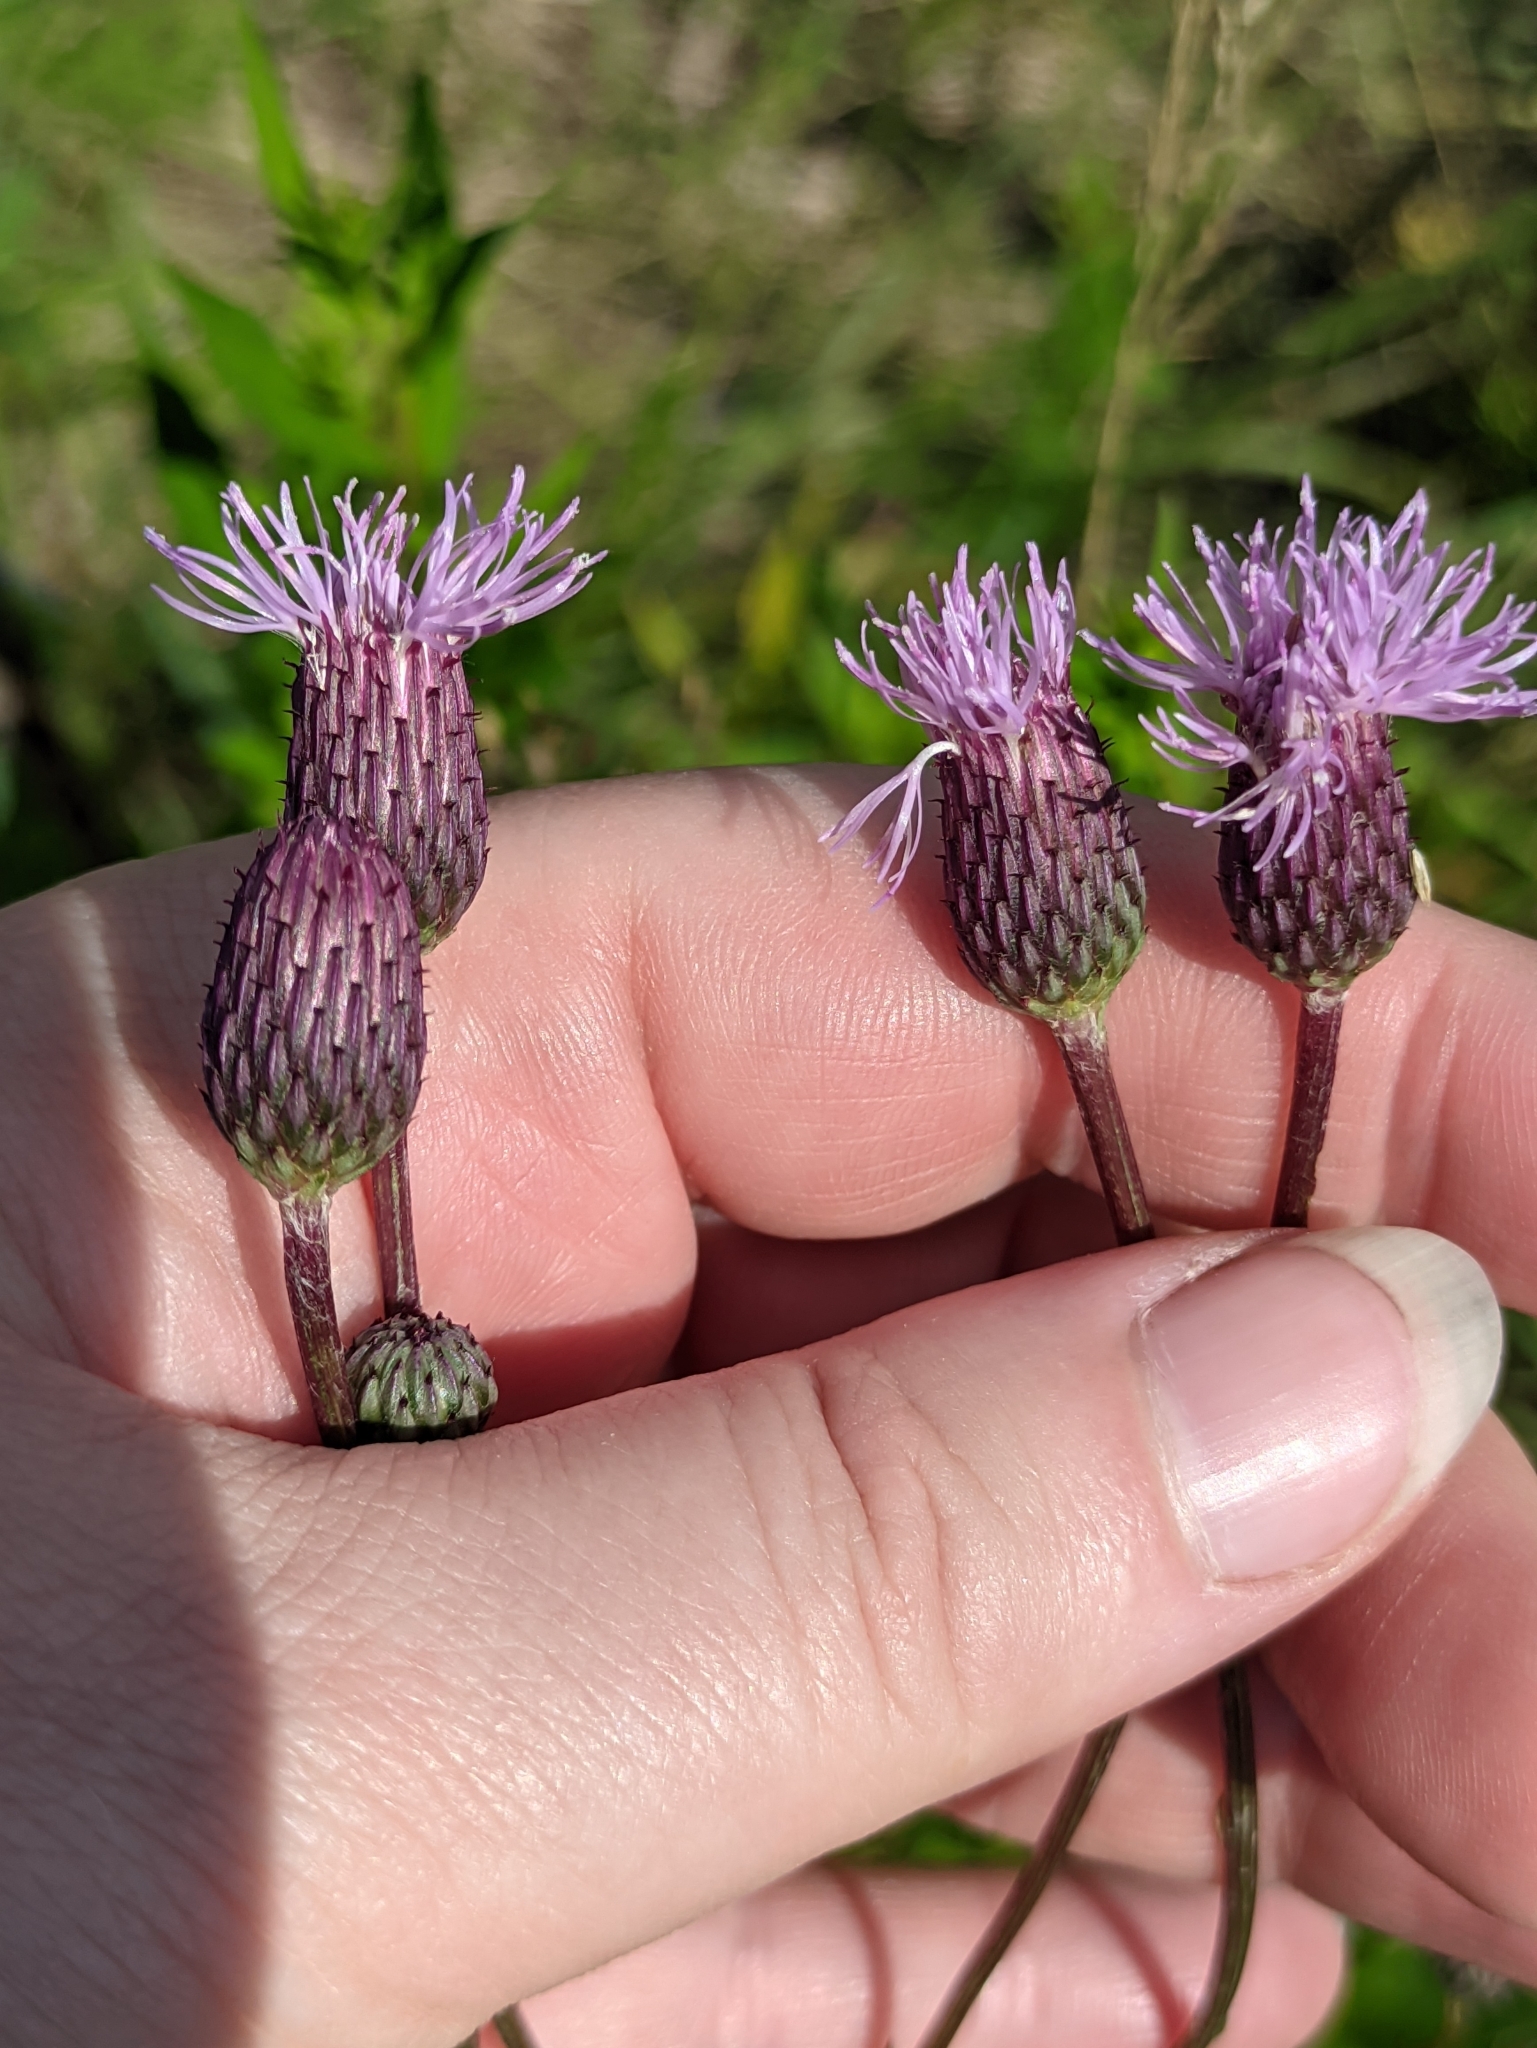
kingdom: Plantae
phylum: Tracheophyta
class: Magnoliopsida
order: Asterales
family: Asteraceae
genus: Cirsium
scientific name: Cirsium arvense
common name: Creeping thistle
